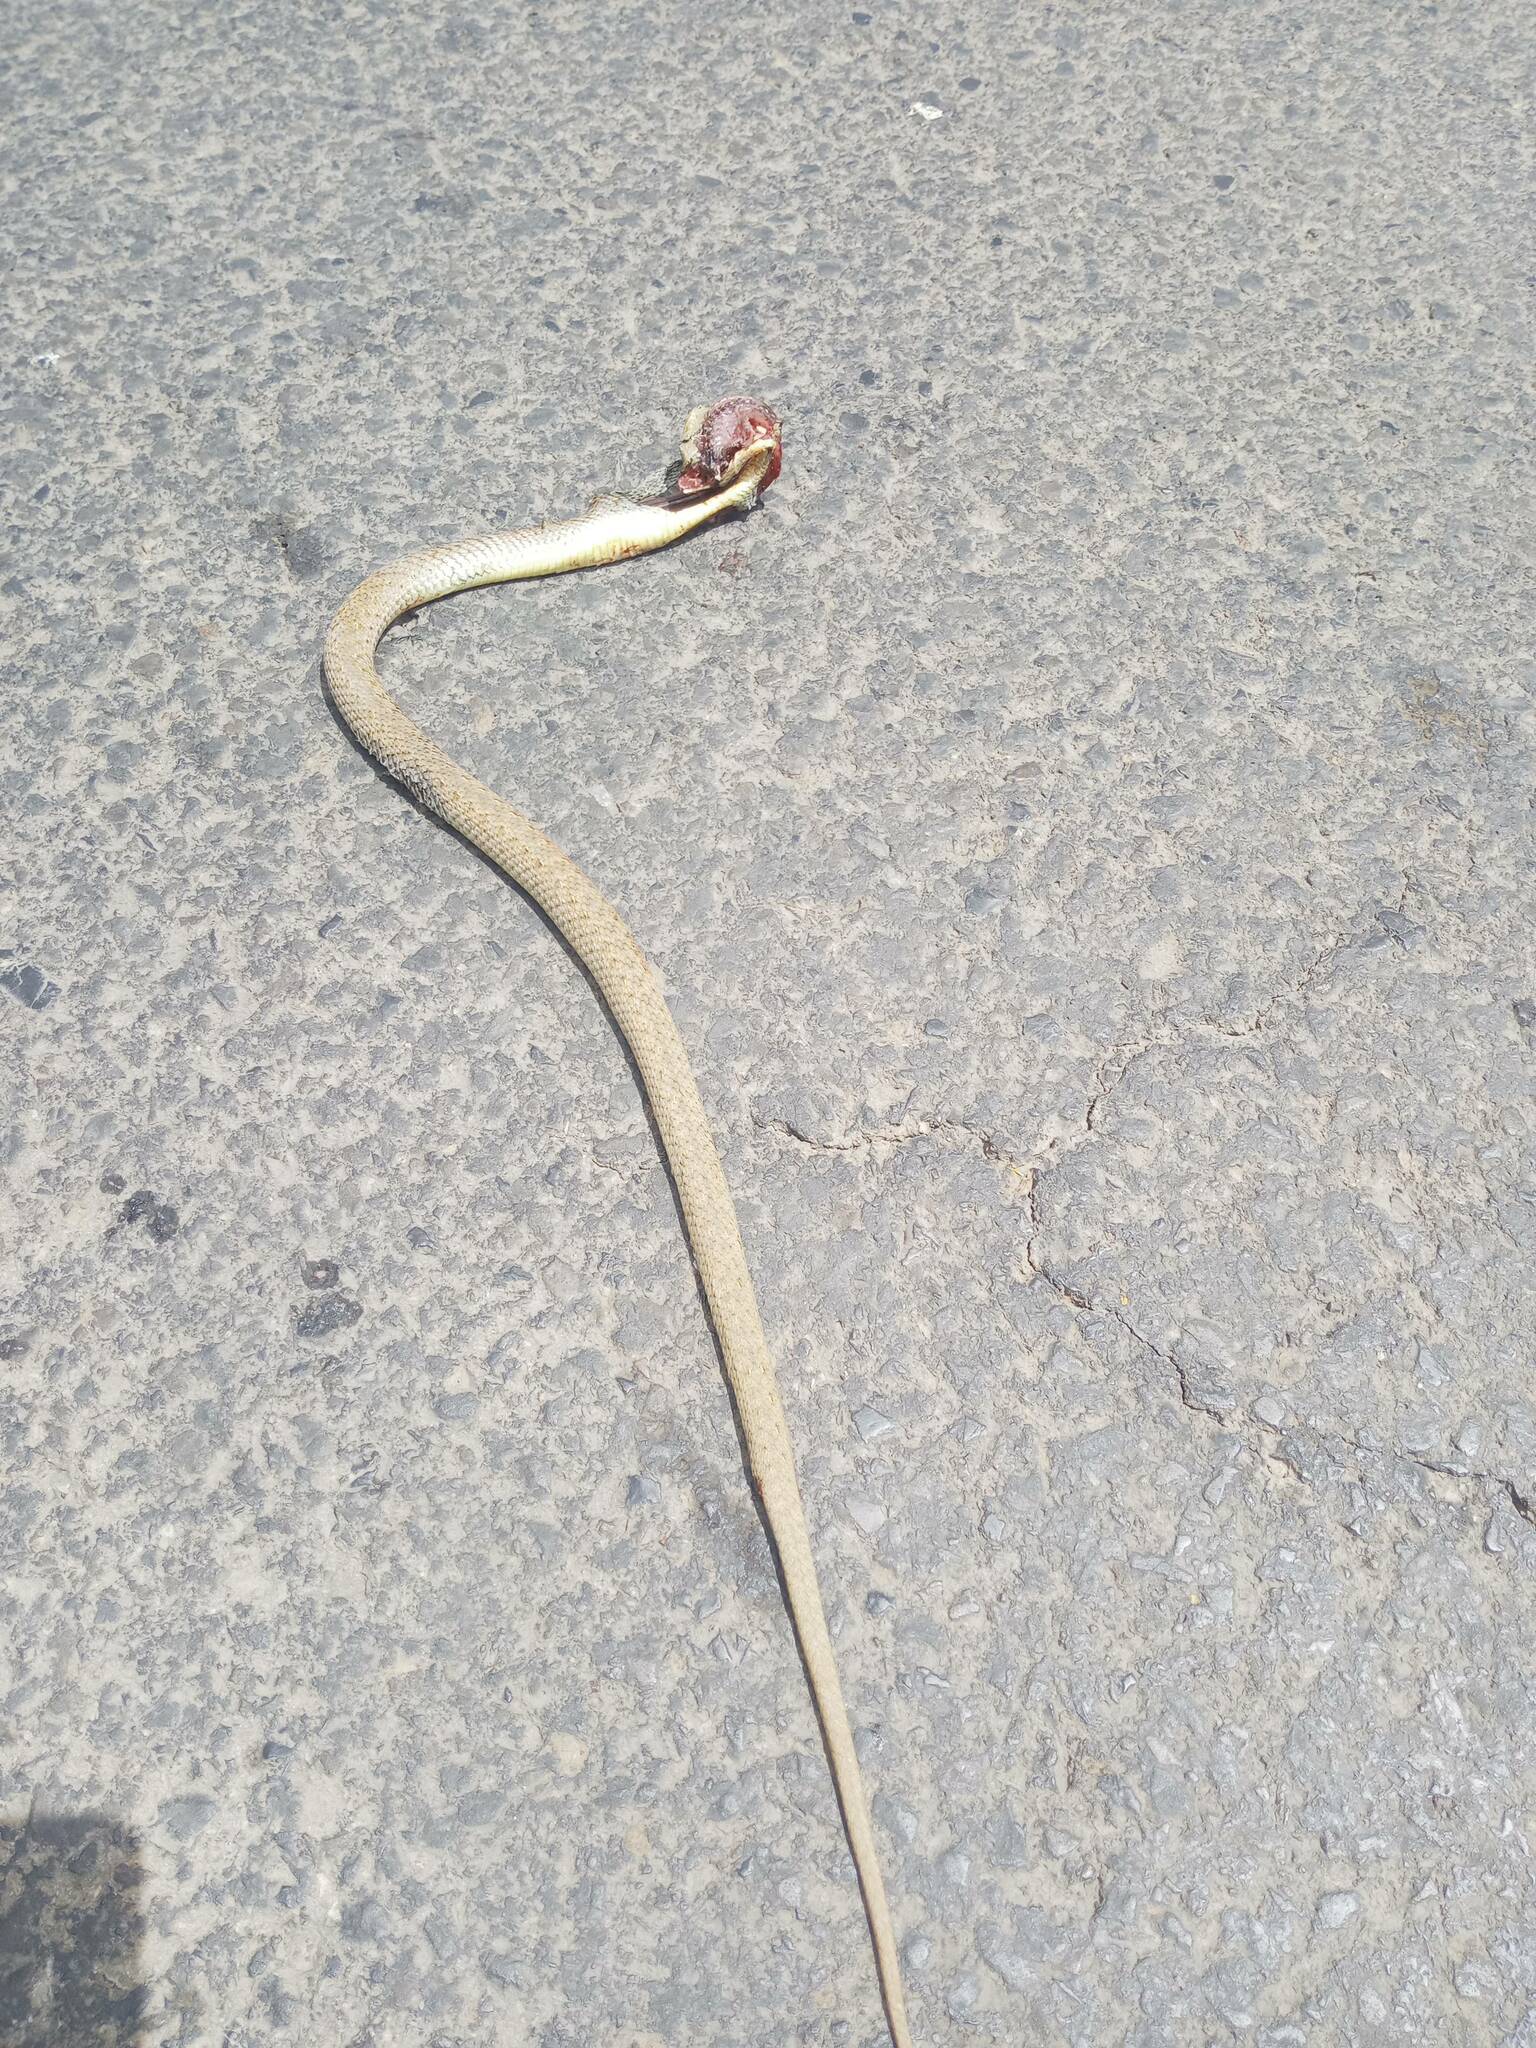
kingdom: Animalia
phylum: Chordata
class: Squamata
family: Psammophiidae
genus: Malpolon
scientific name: Malpolon monspessulanus
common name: Montpellier snake
